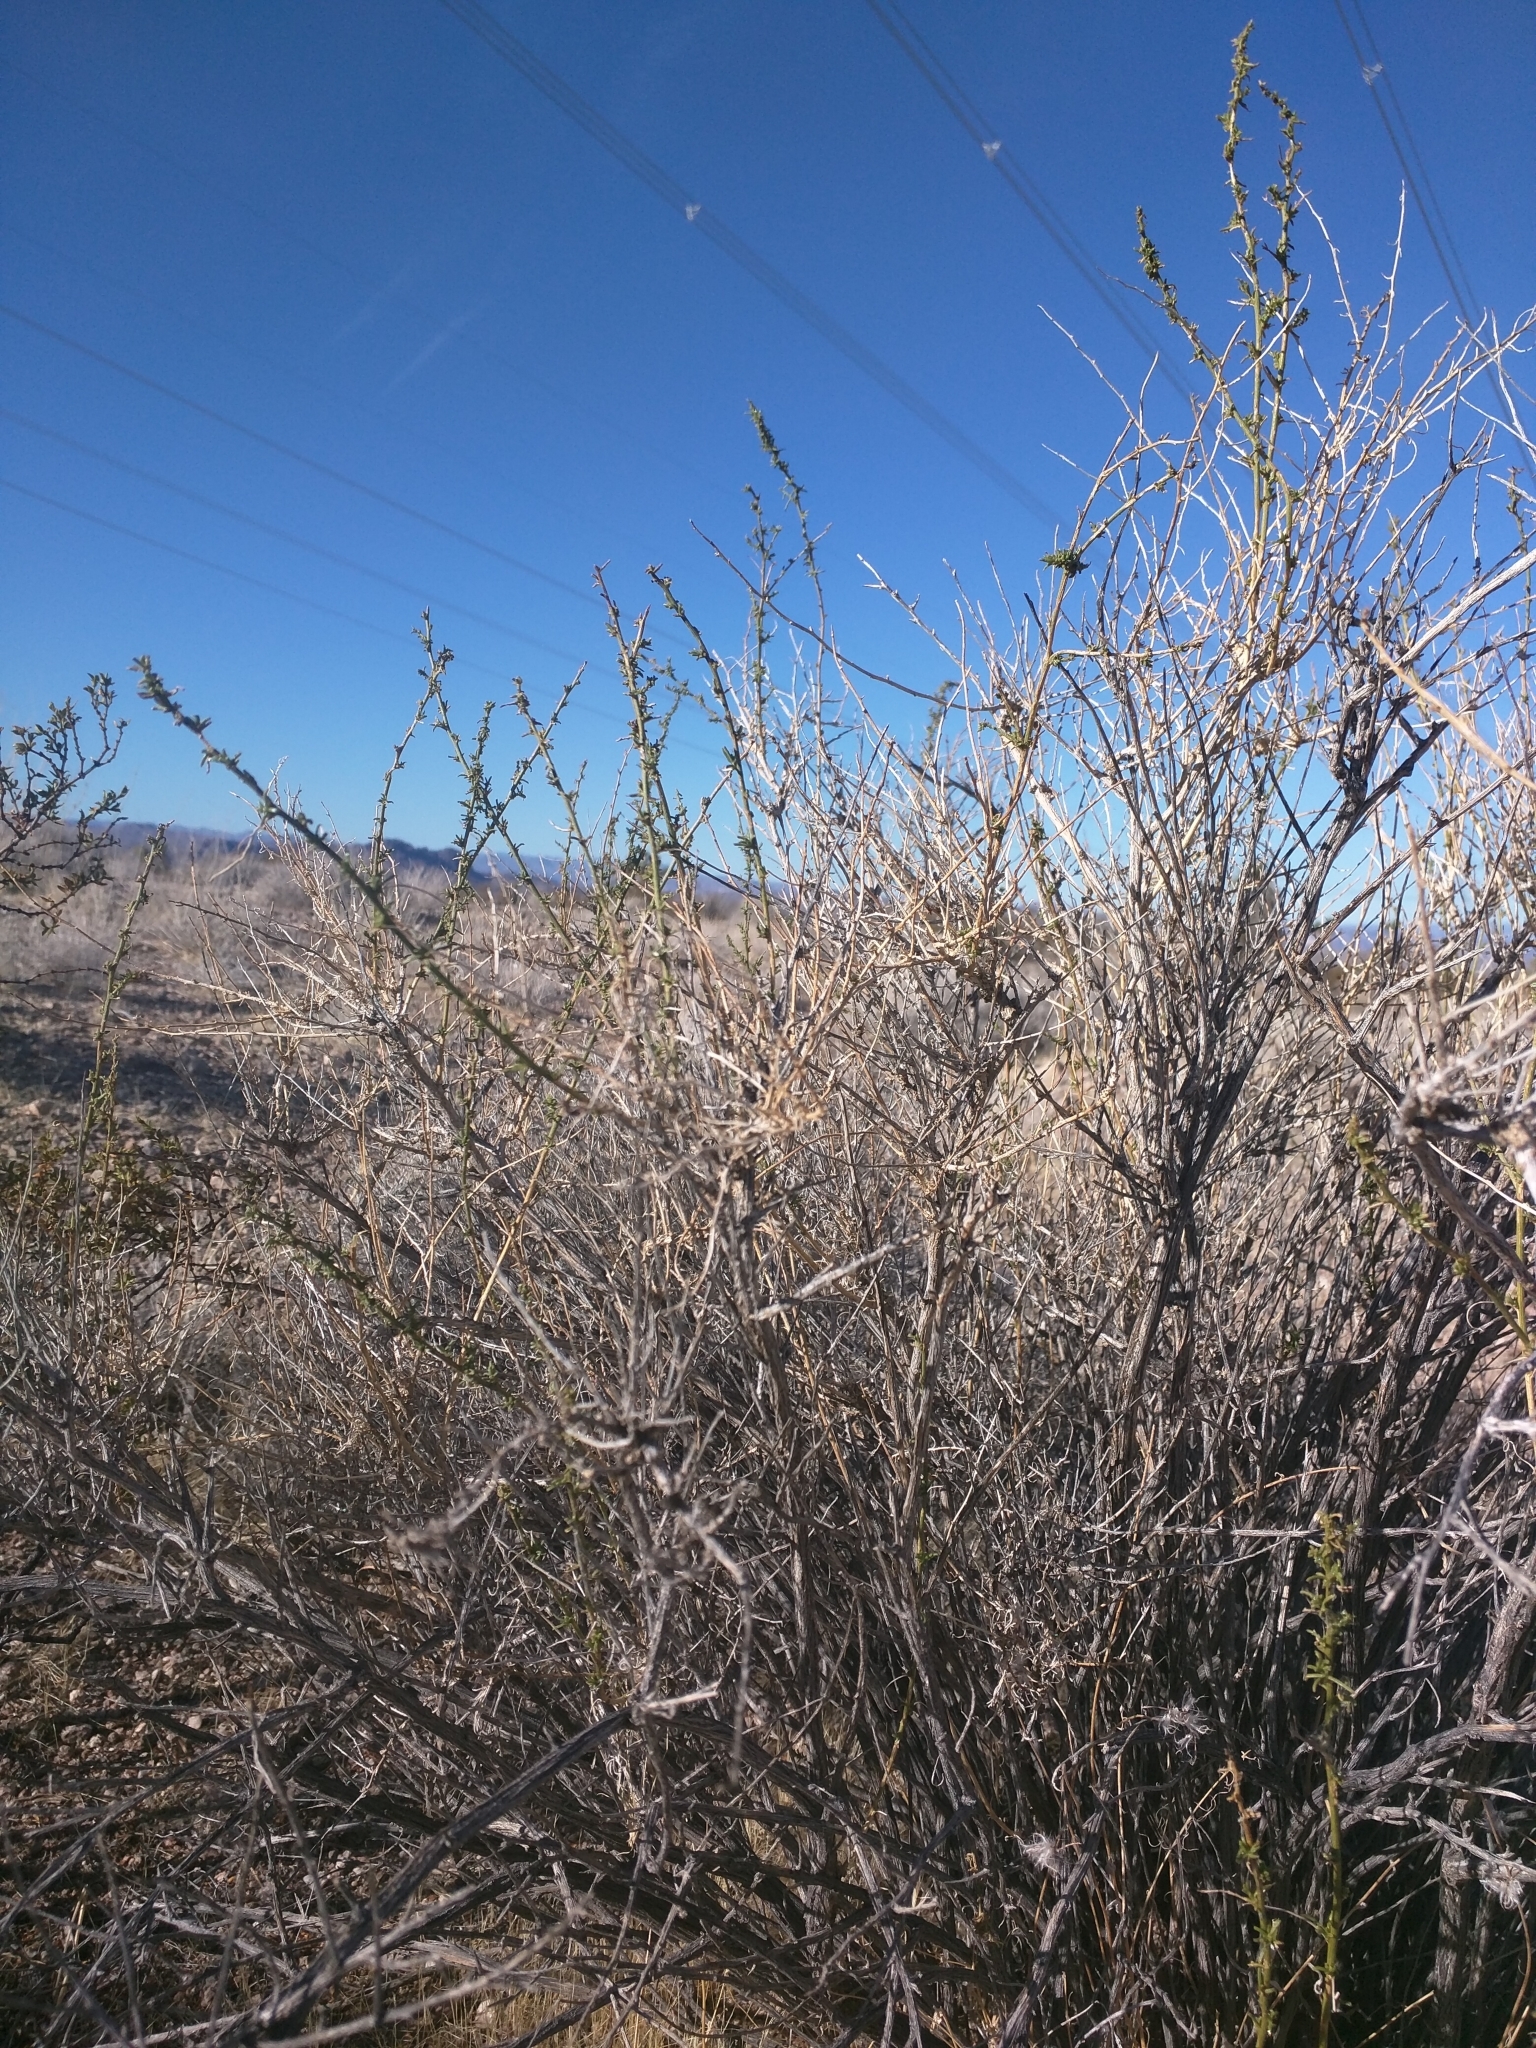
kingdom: Plantae
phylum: Tracheophyta
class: Magnoliopsida
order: Asterales
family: Asteraceae
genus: Ambrosia
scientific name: Ambrosia salsola
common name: Burrobrush
